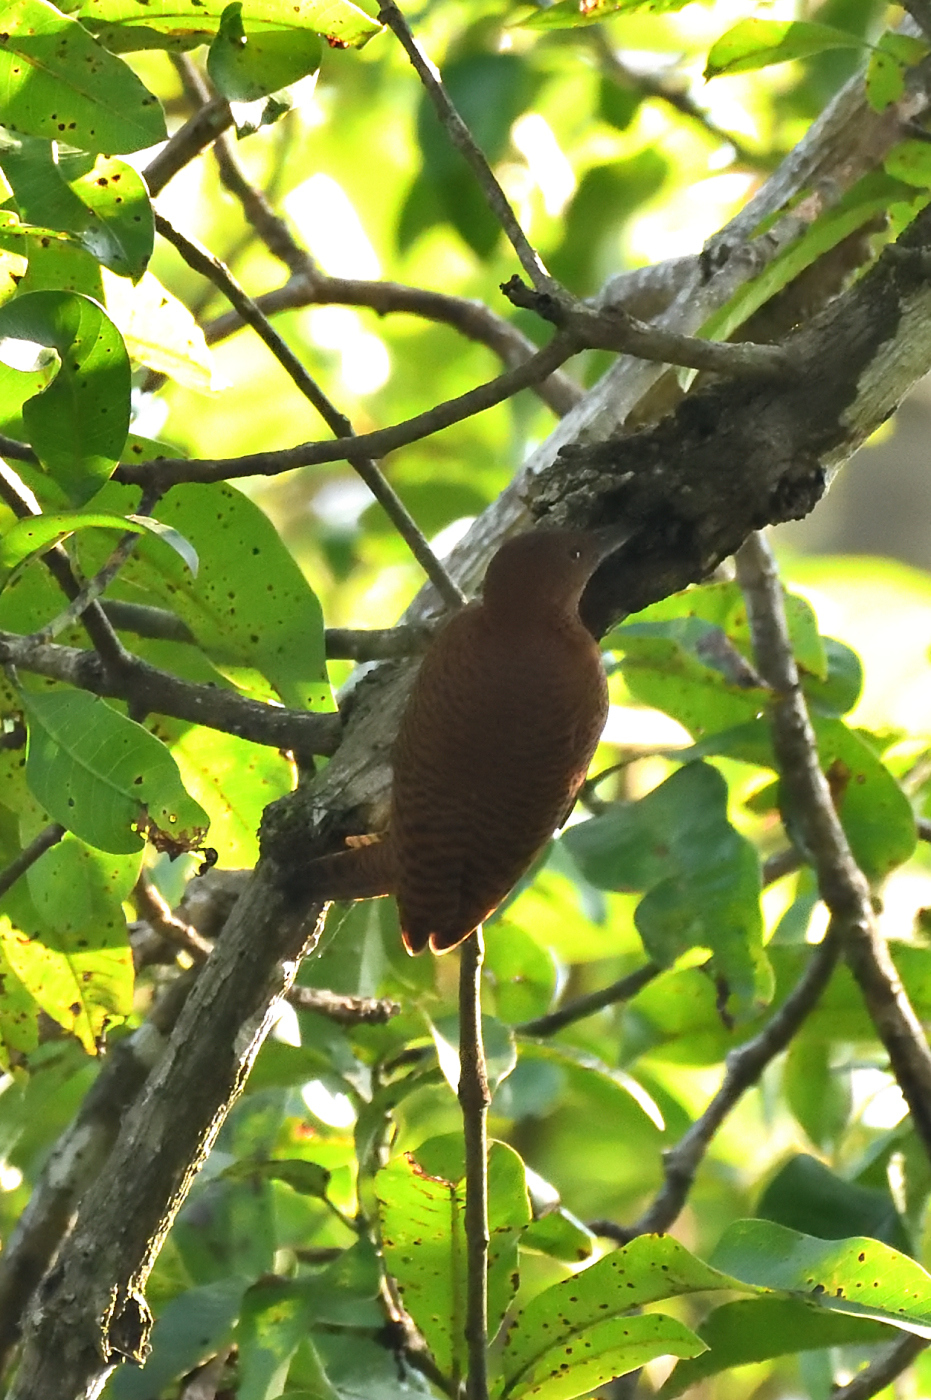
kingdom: Animalia
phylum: Chordata
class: Aves
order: Piciformes
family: Picidae
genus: Micropternus
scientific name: Micropternus brachyurus
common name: Rufous woodpecker
